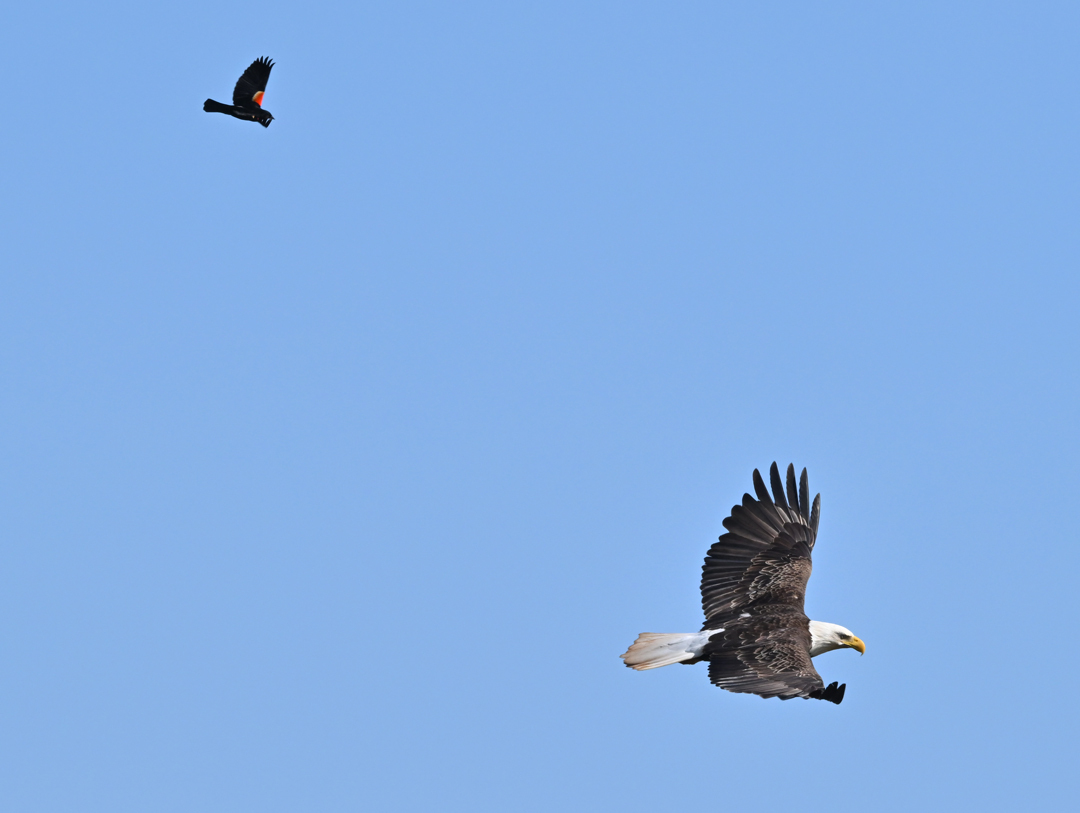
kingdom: Animalia
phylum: Chordata
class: Aves
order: Accipitriformes
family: Accipitridae
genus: Haliaeetus
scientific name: Haliaeetus leucocephalus
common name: Bald eagle
